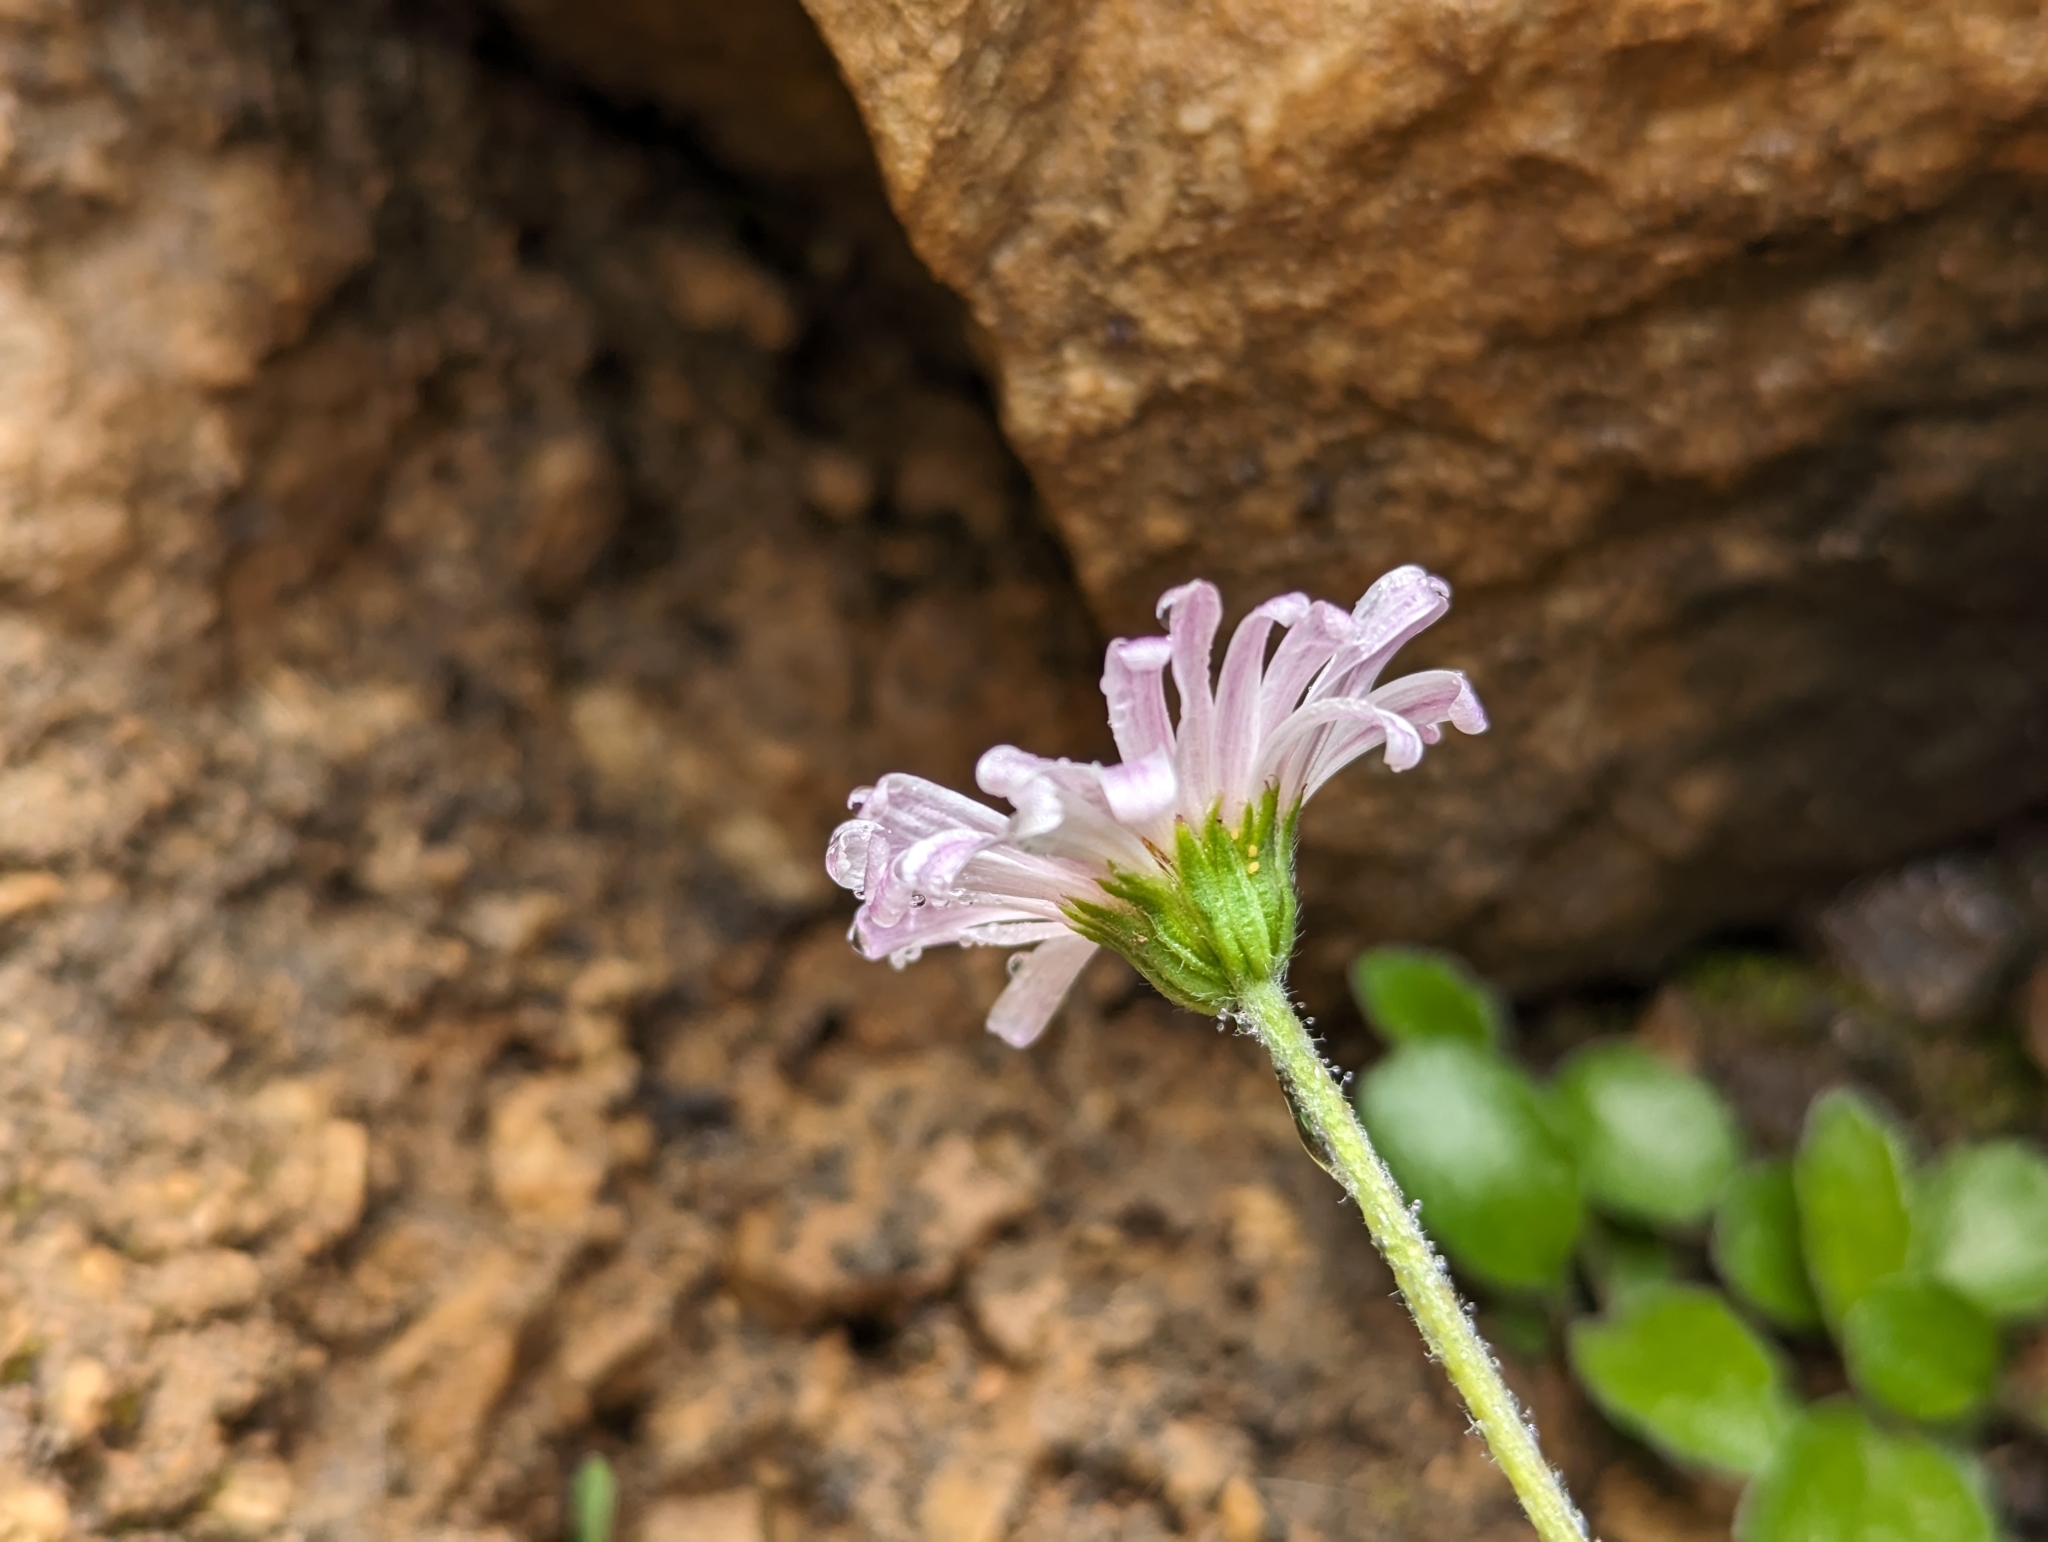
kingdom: Plantae
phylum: Tracheophyta
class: Magnoliopsida
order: Asterales
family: Asteraceae
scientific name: Asteraceae
